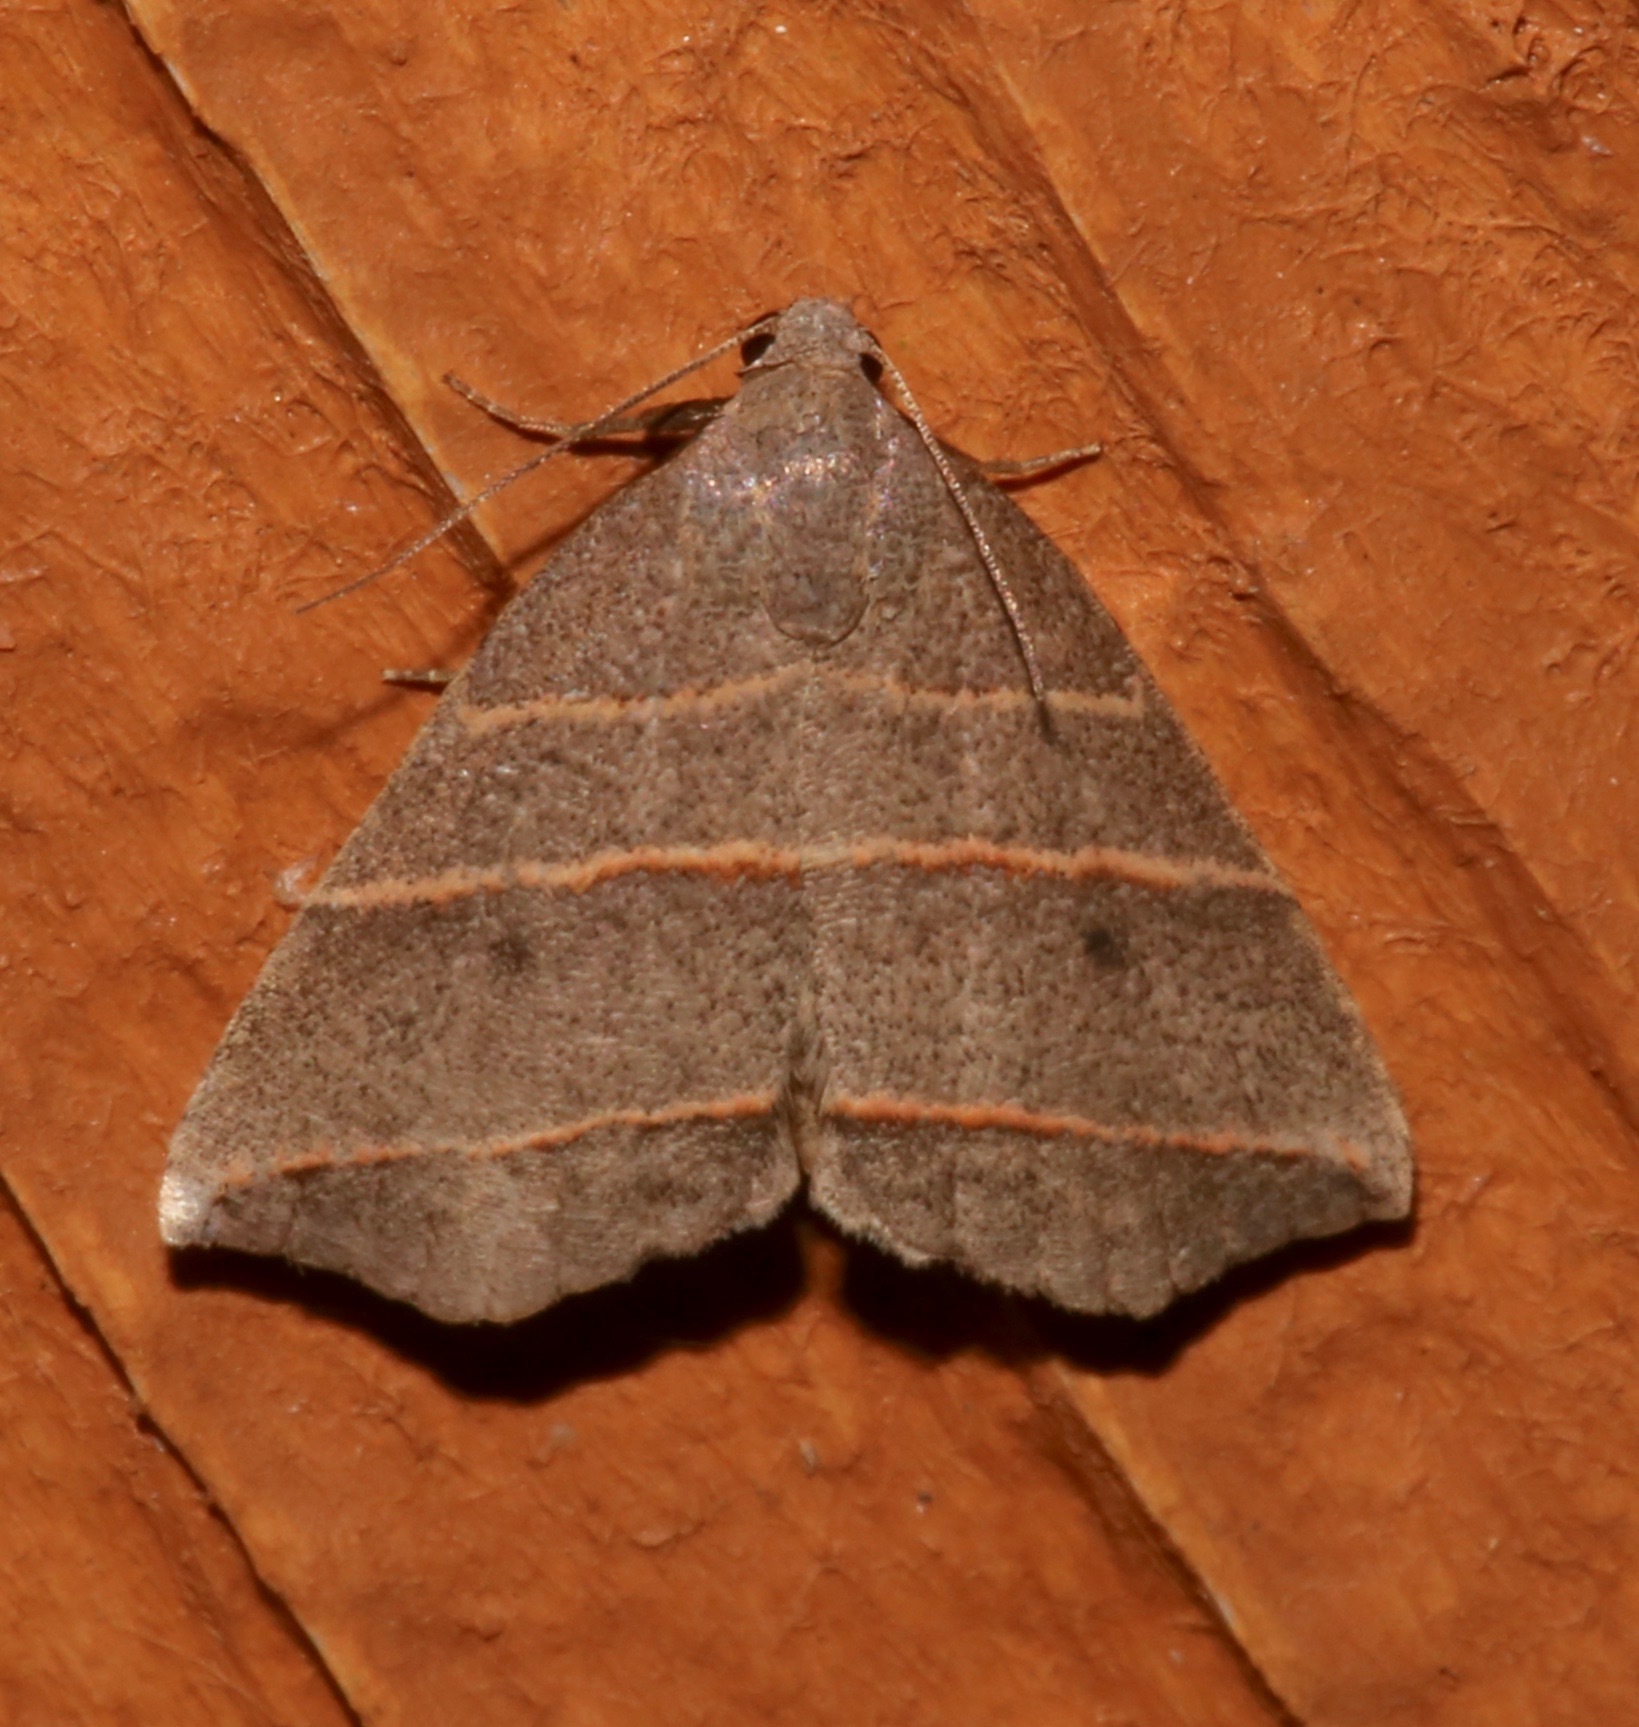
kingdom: Animalia
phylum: Arthropoda
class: Insecta
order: Lepidoptera
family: Erebidae
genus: Colobochyla
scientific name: Colobochyla interpuncta
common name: Yellow-lined owlet
